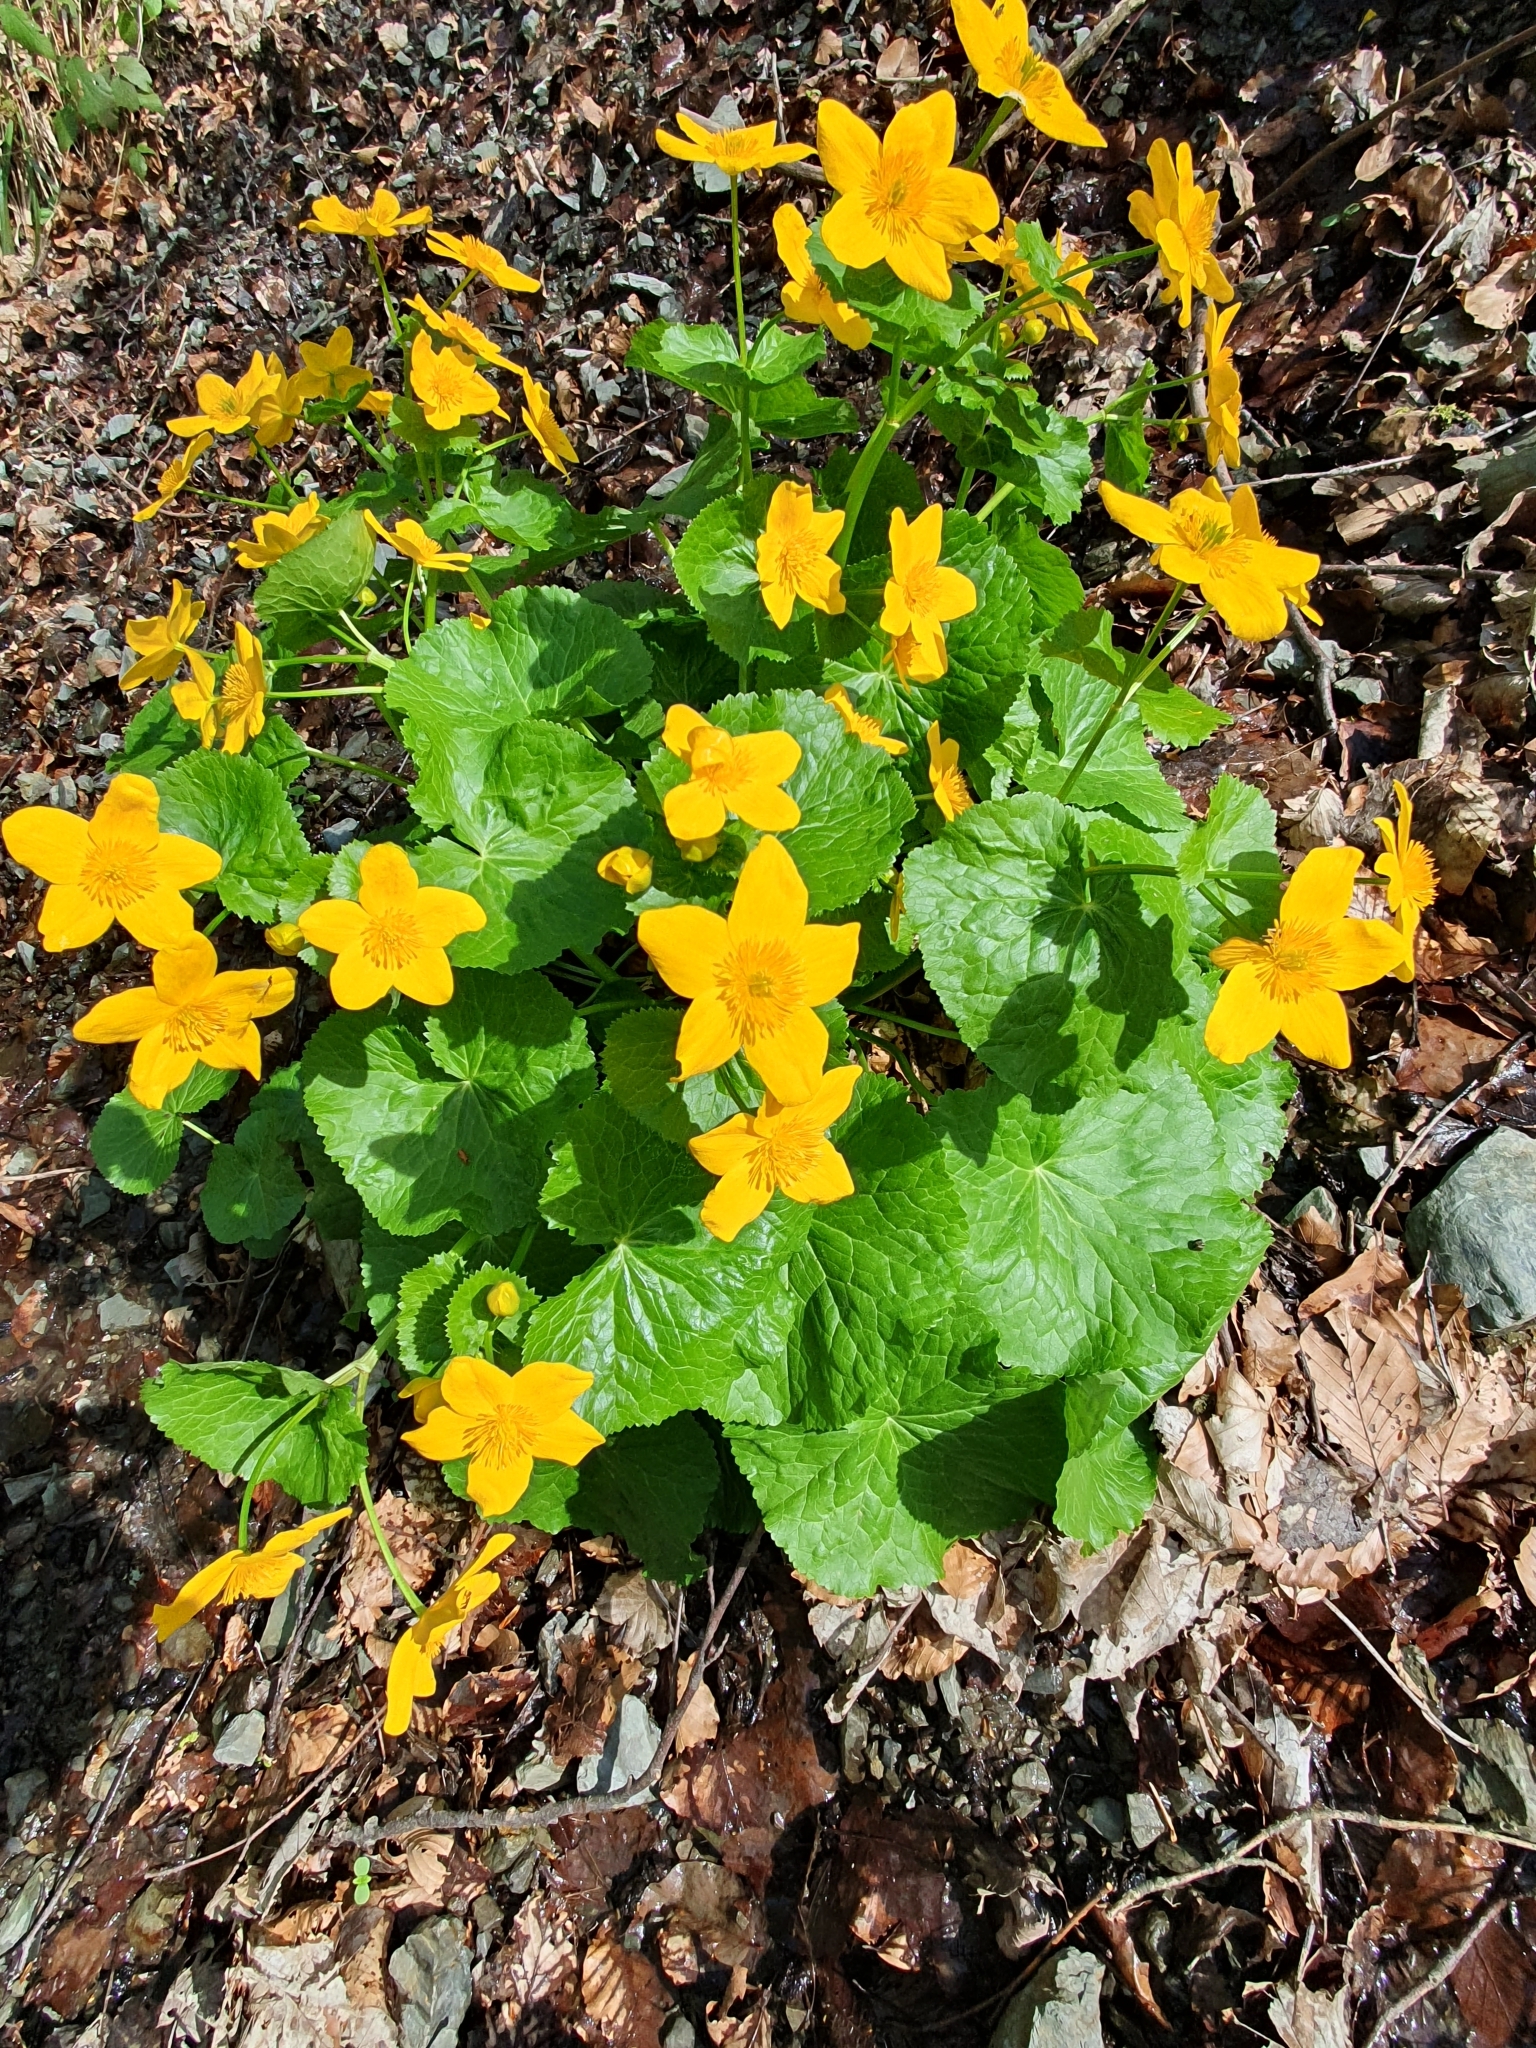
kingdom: Plantae
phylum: Tracheophyta
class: Magnoliopsida
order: Ranunculales
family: Ranunculaceae
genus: Caltha
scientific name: Caltha palustris
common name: Marsh marigold
